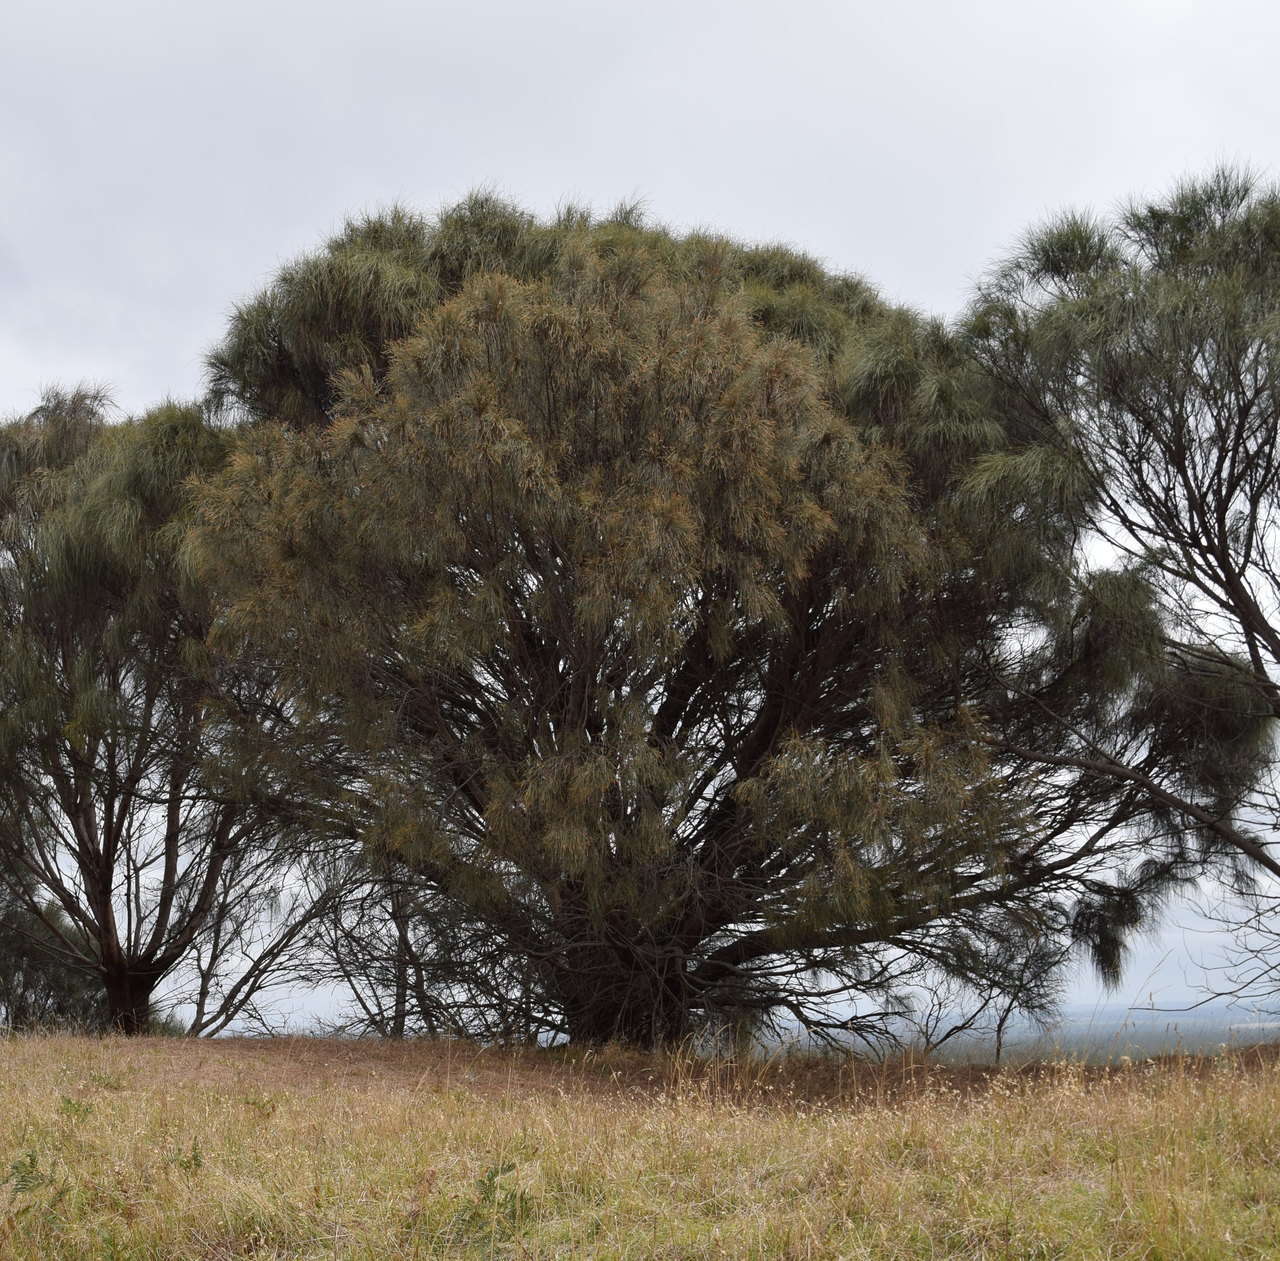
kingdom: Plantae
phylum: Tracheophyta
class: Magnoliopsida
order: Fagales
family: Casuarinaceae
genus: Allocasuarina
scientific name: Allocasuarina verticillata
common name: Drooping she-oak
